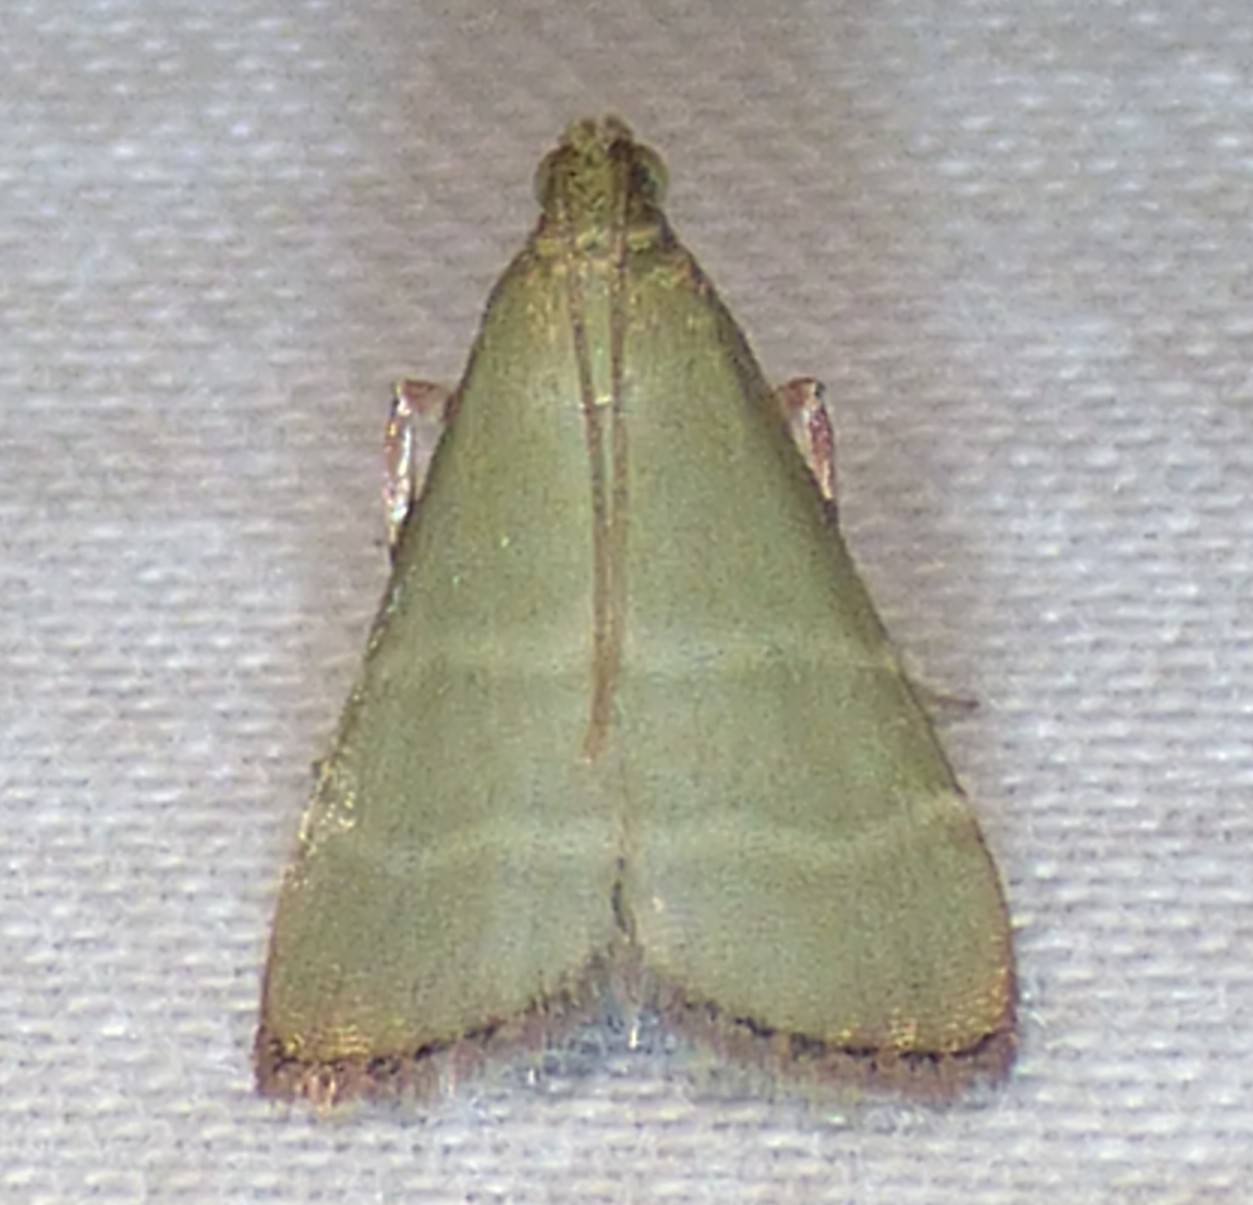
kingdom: Animalia
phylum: Arthropoda
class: Insecta
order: Lepidoptera
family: Pyralidae
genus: Arta
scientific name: Arta olivalis
